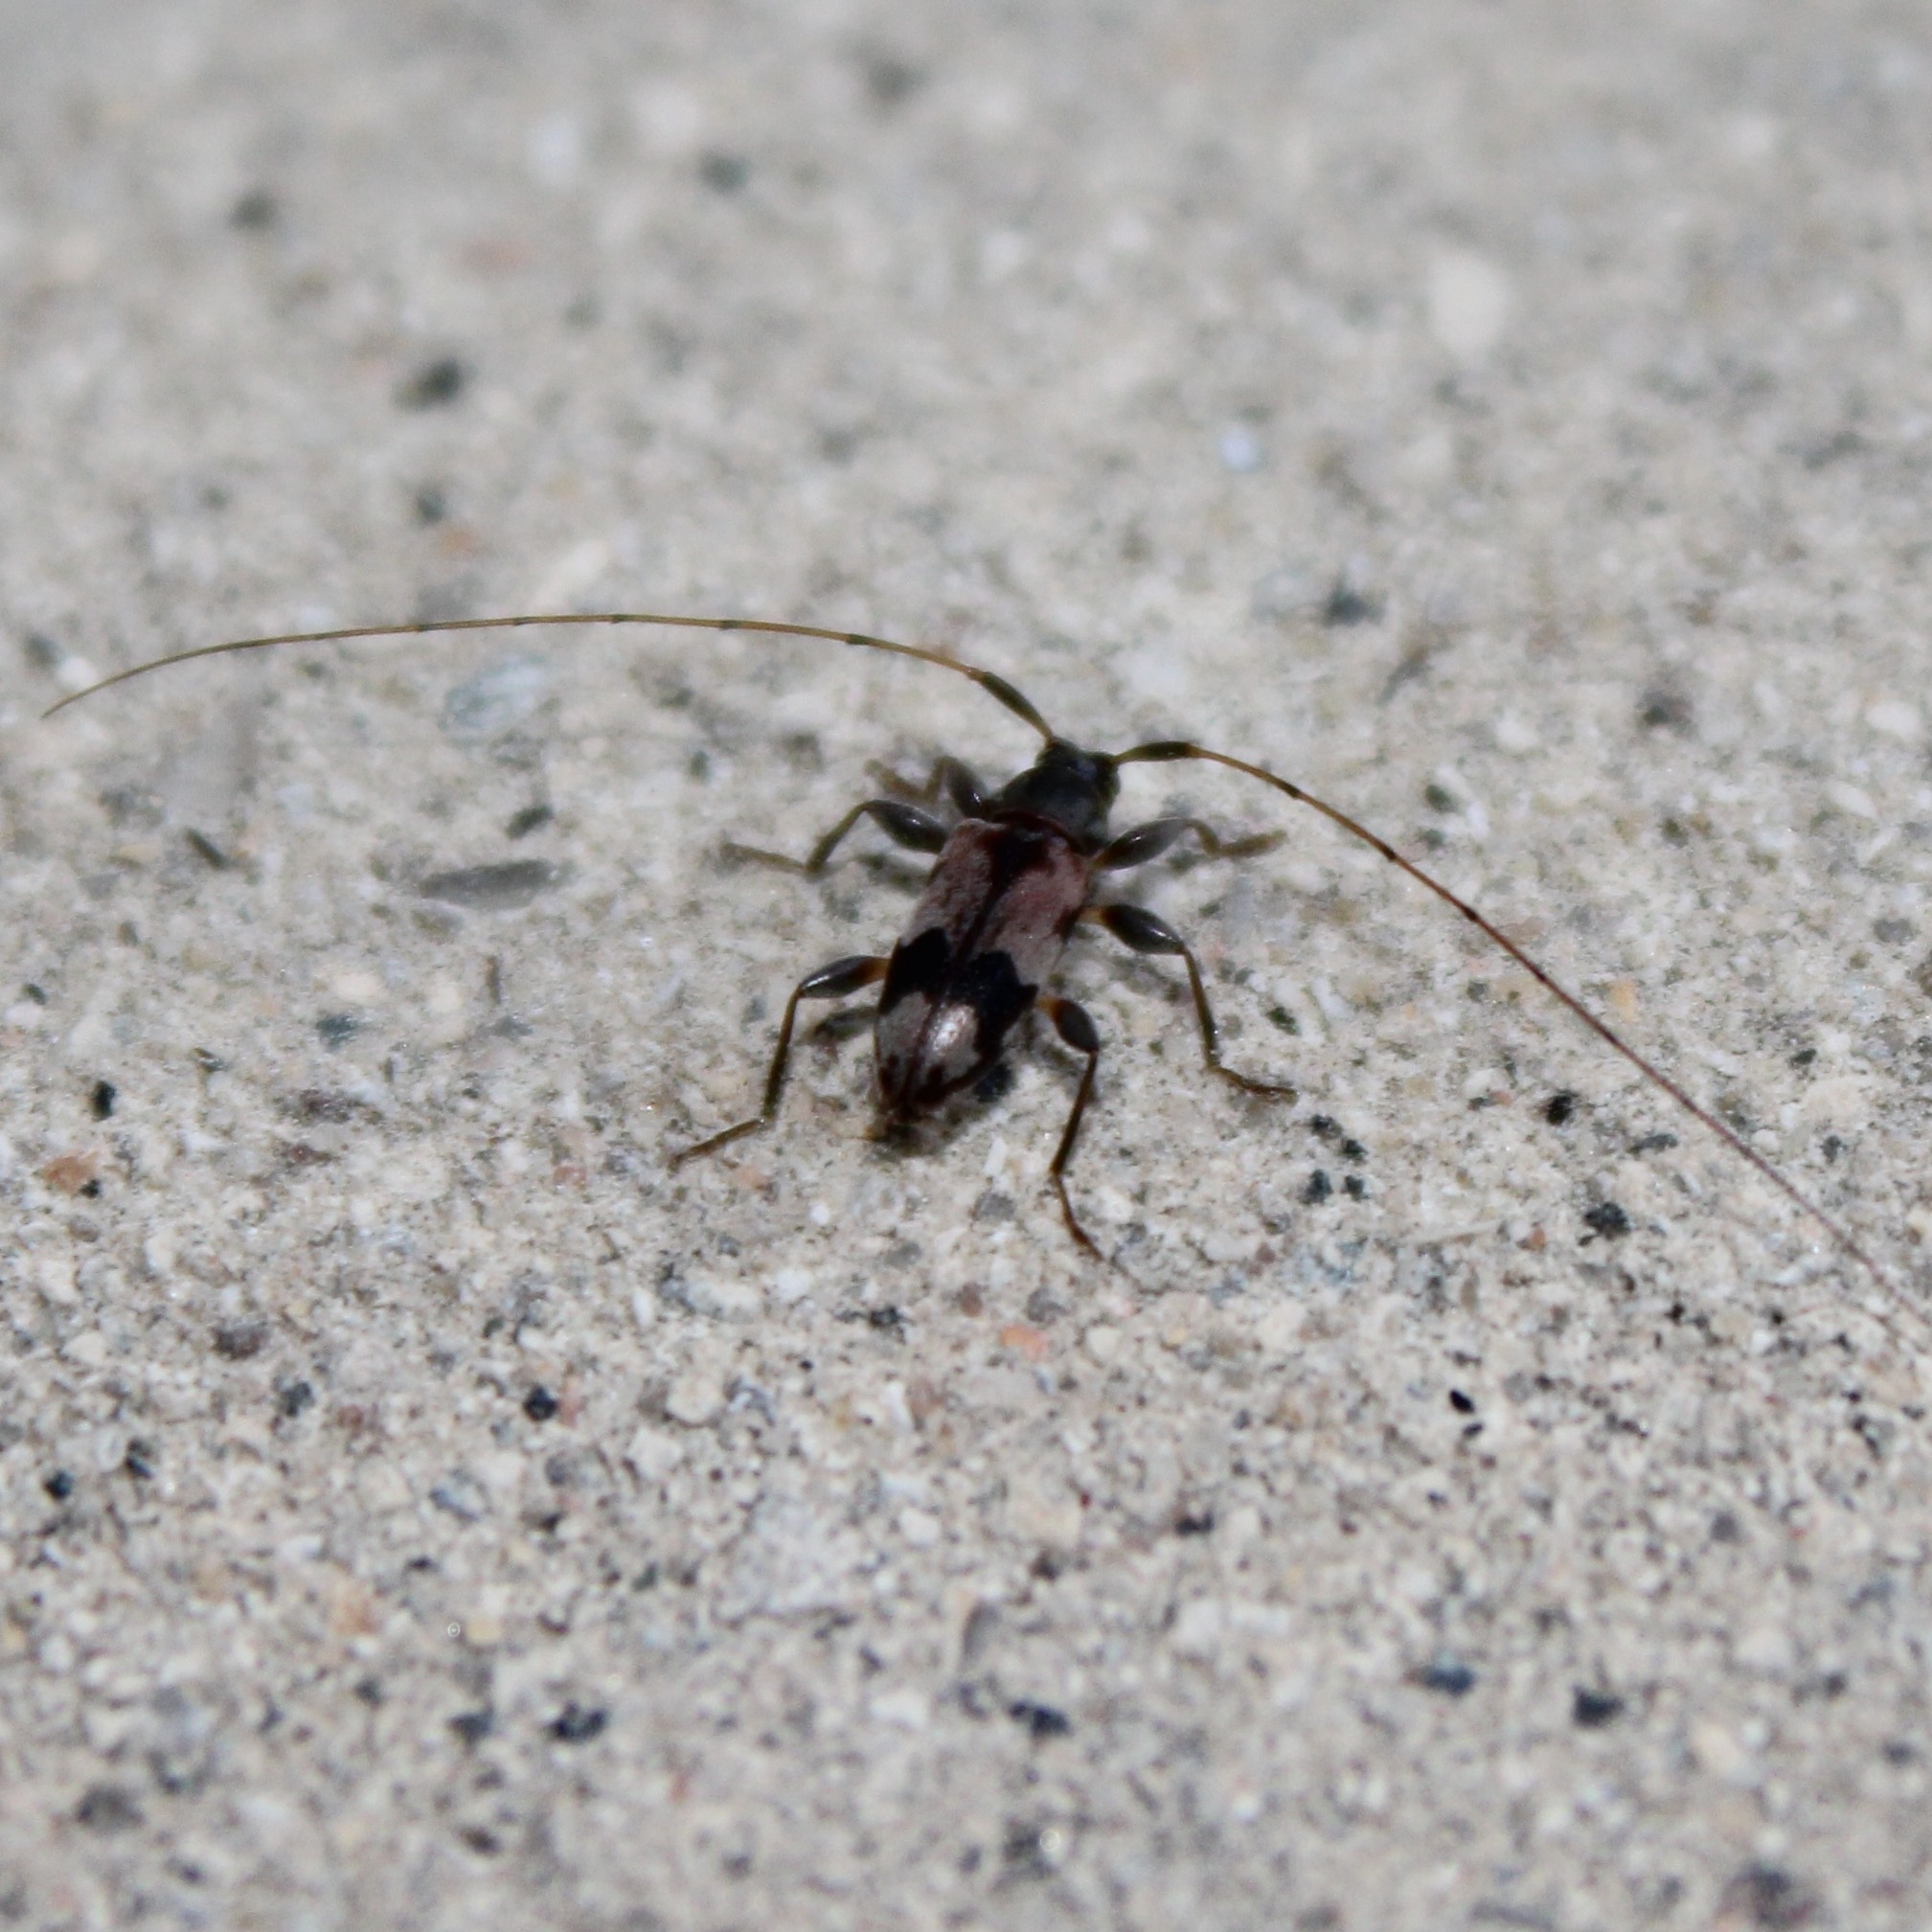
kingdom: Animalia
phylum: Arthropoda
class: Insecta
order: Coleoptera
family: Cerambycidae
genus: Urgleptes
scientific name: Urgleptes querci
